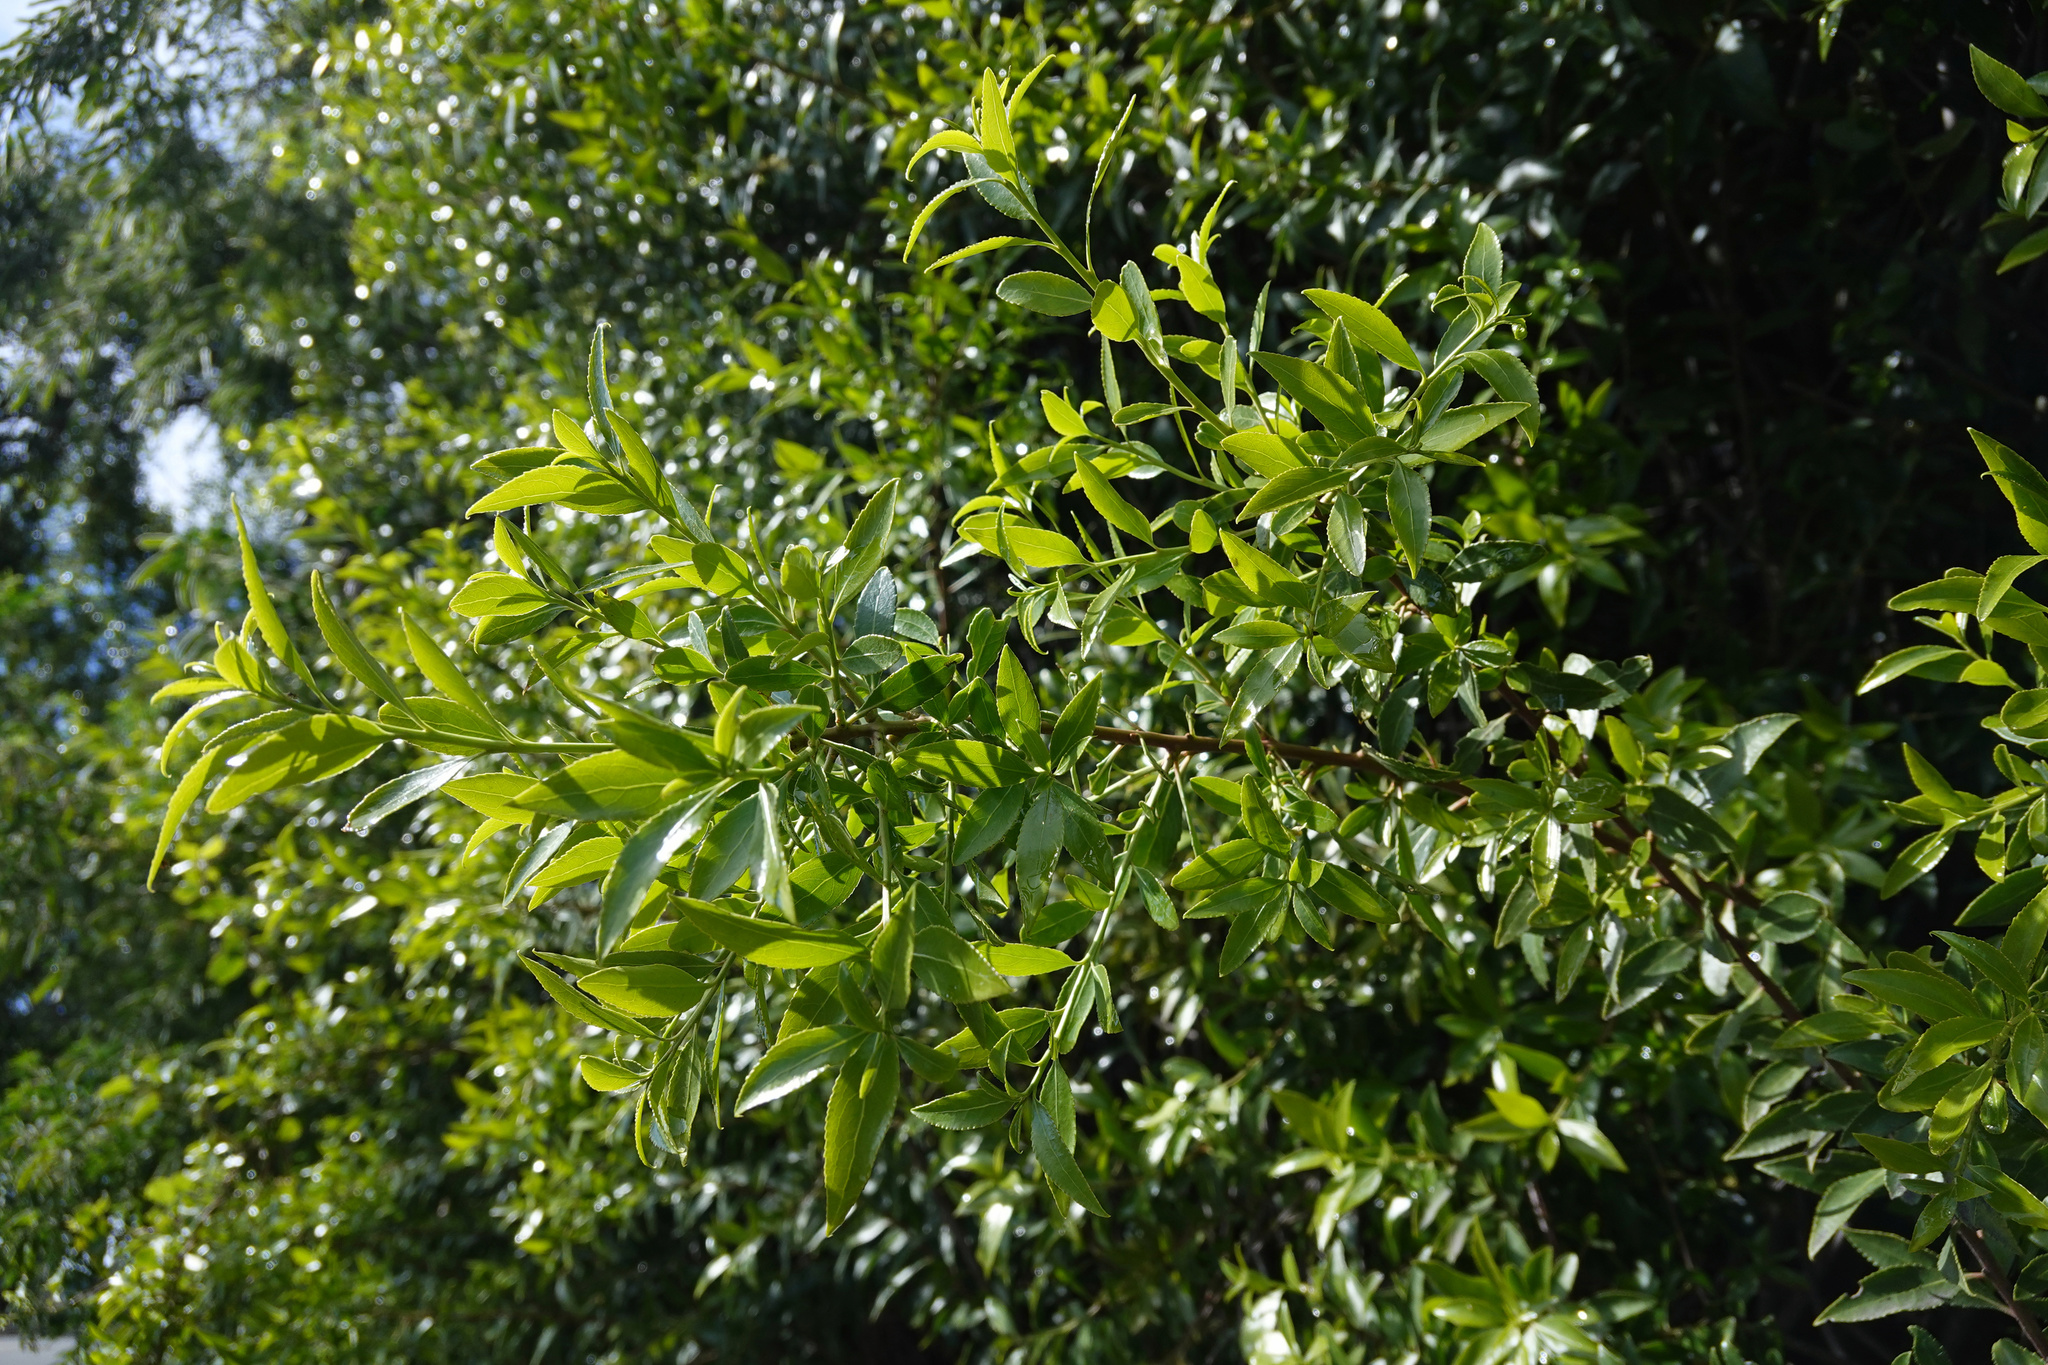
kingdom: Plantae
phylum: Tracheophyta
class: Magnoliopsida
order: Celastrales
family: Celastraceae
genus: Maytenus
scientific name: Maytenus boaria
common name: Mayten
